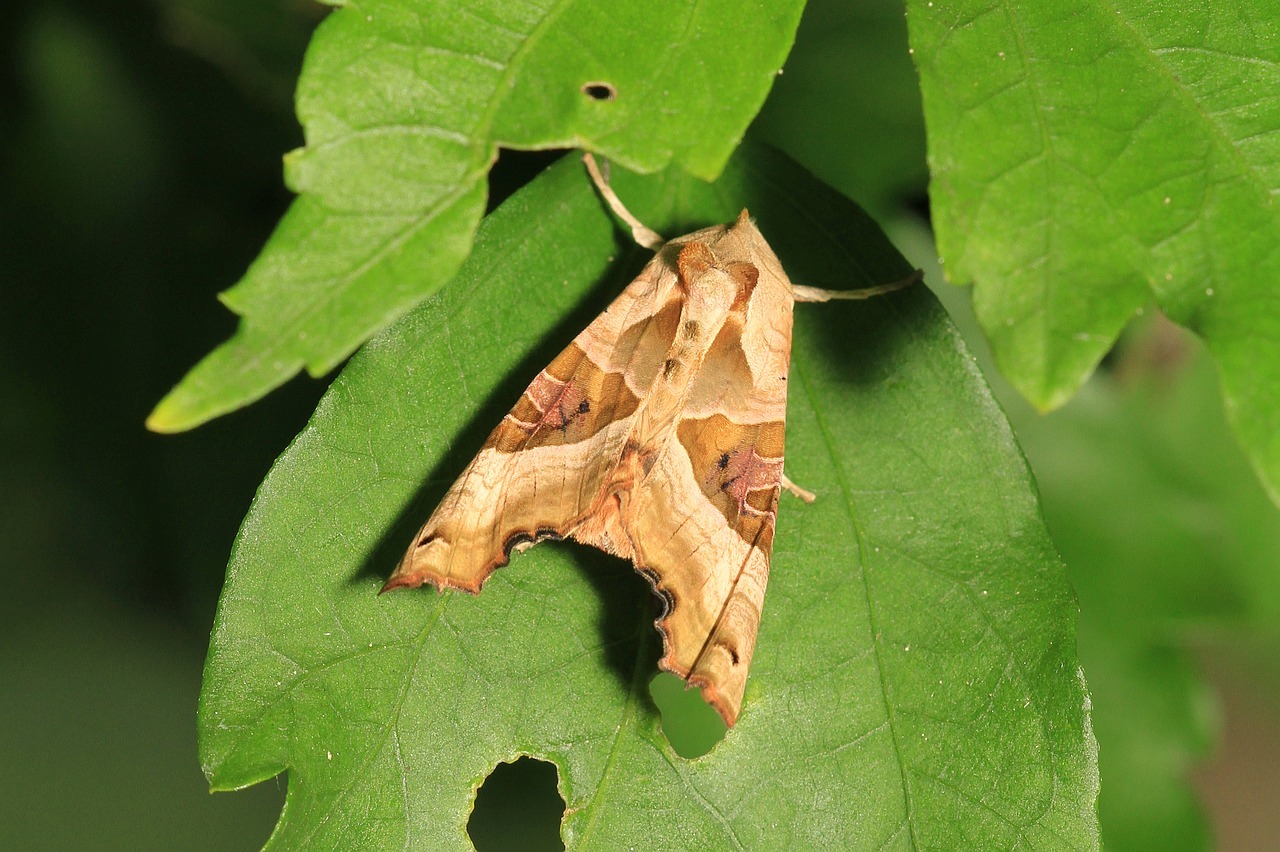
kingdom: Animalia
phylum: Arthropoda
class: Insecta
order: Lepidoptera
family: Noctuidae
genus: Phlogophora
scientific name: Phlogophora meticulosa
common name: Angle shades
